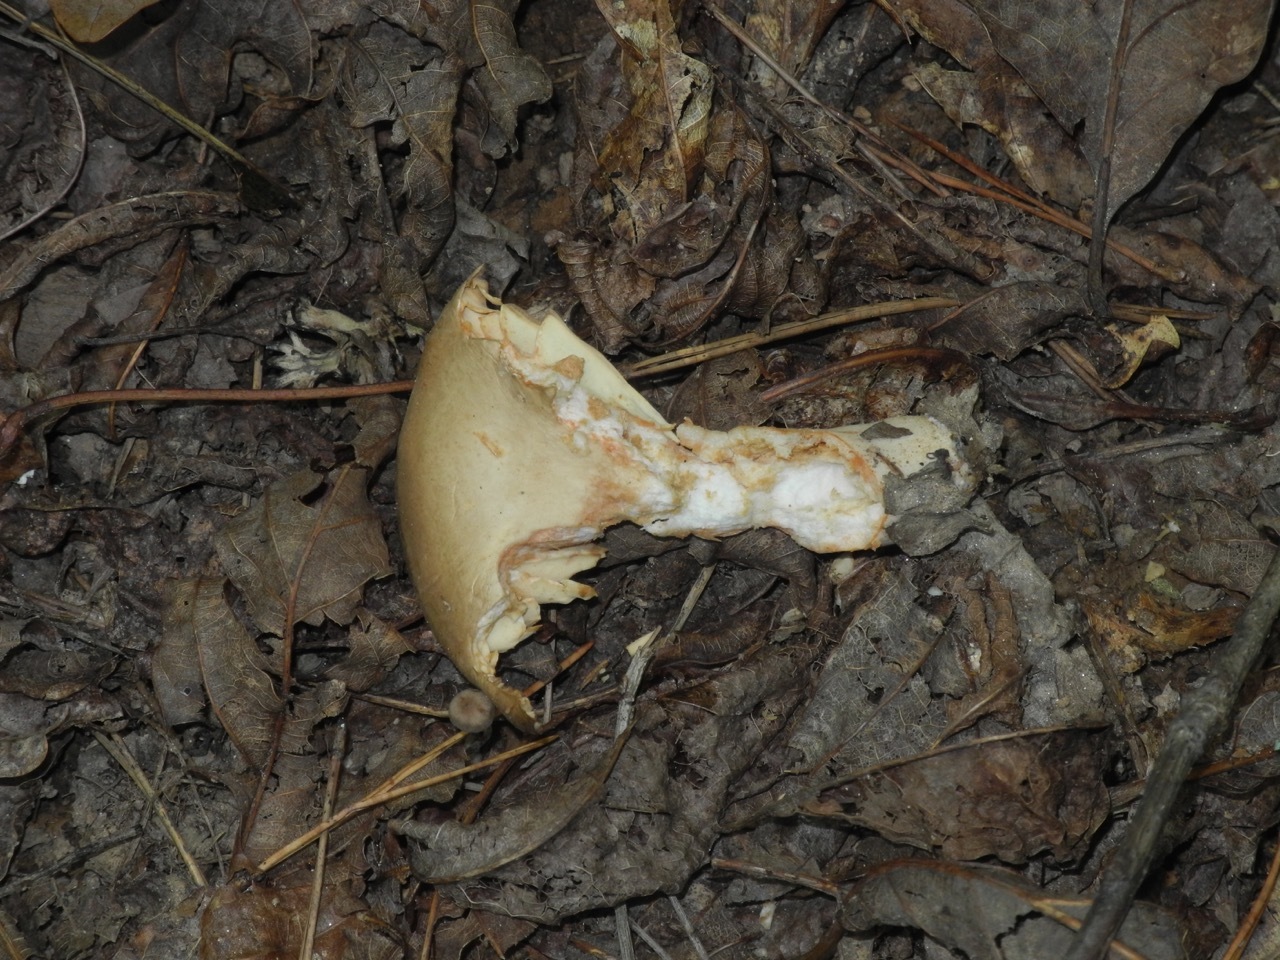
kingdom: Animalia
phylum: Chordata
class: Testudines
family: Emydidae
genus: Terrapene
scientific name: Terrapene carolina
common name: Common box turtle
